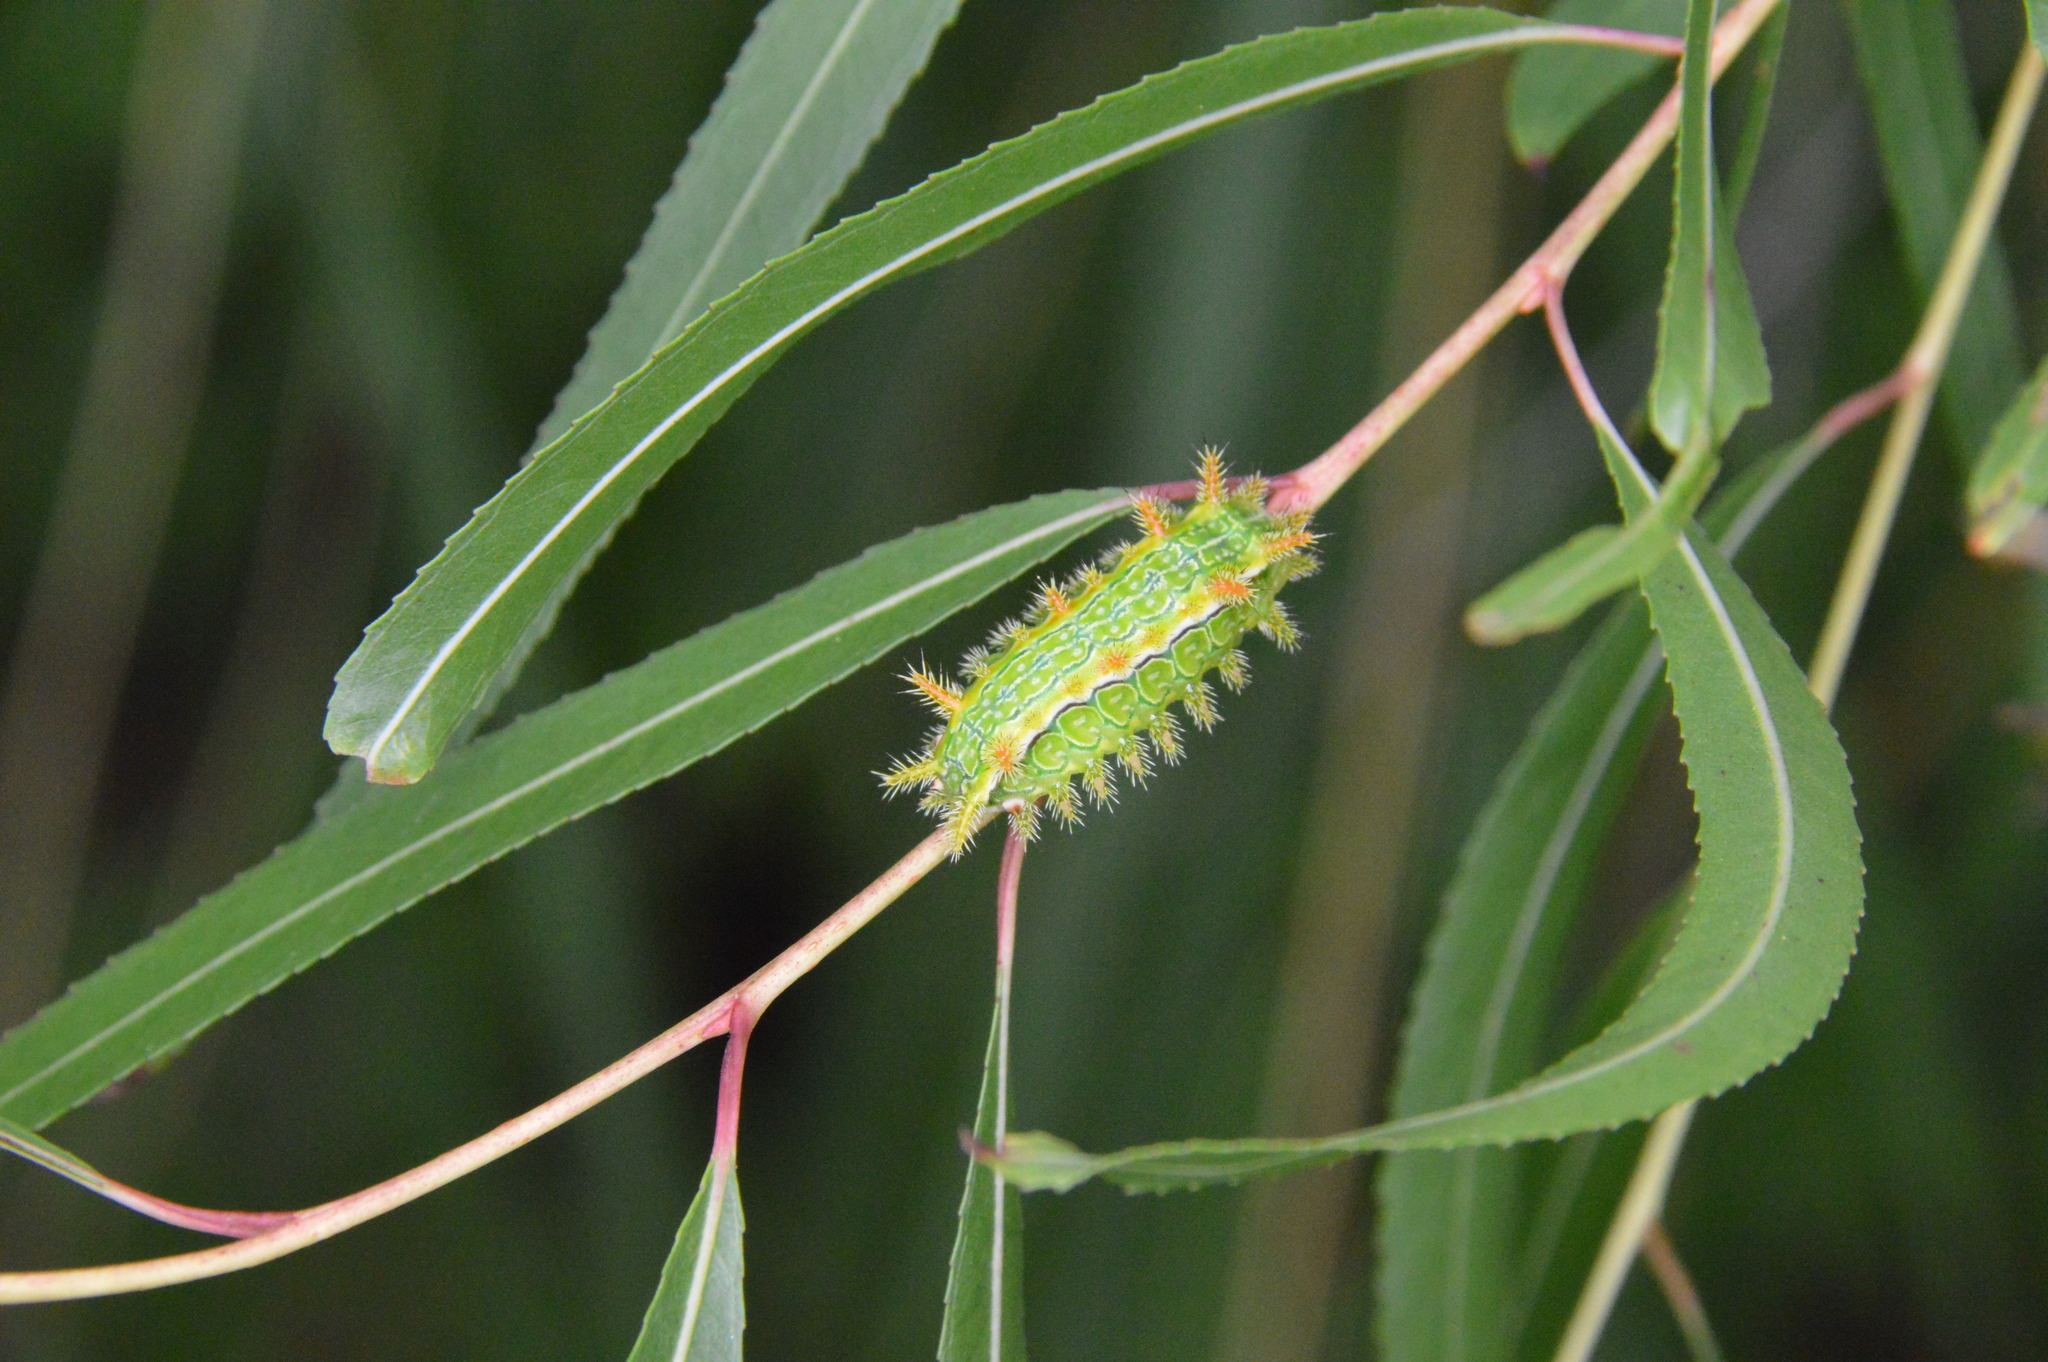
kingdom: Animalia
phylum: Arthropoda
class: Insecta
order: Lepidoptera
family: Limacodidae
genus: Euclea
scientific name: Euclea incisa
